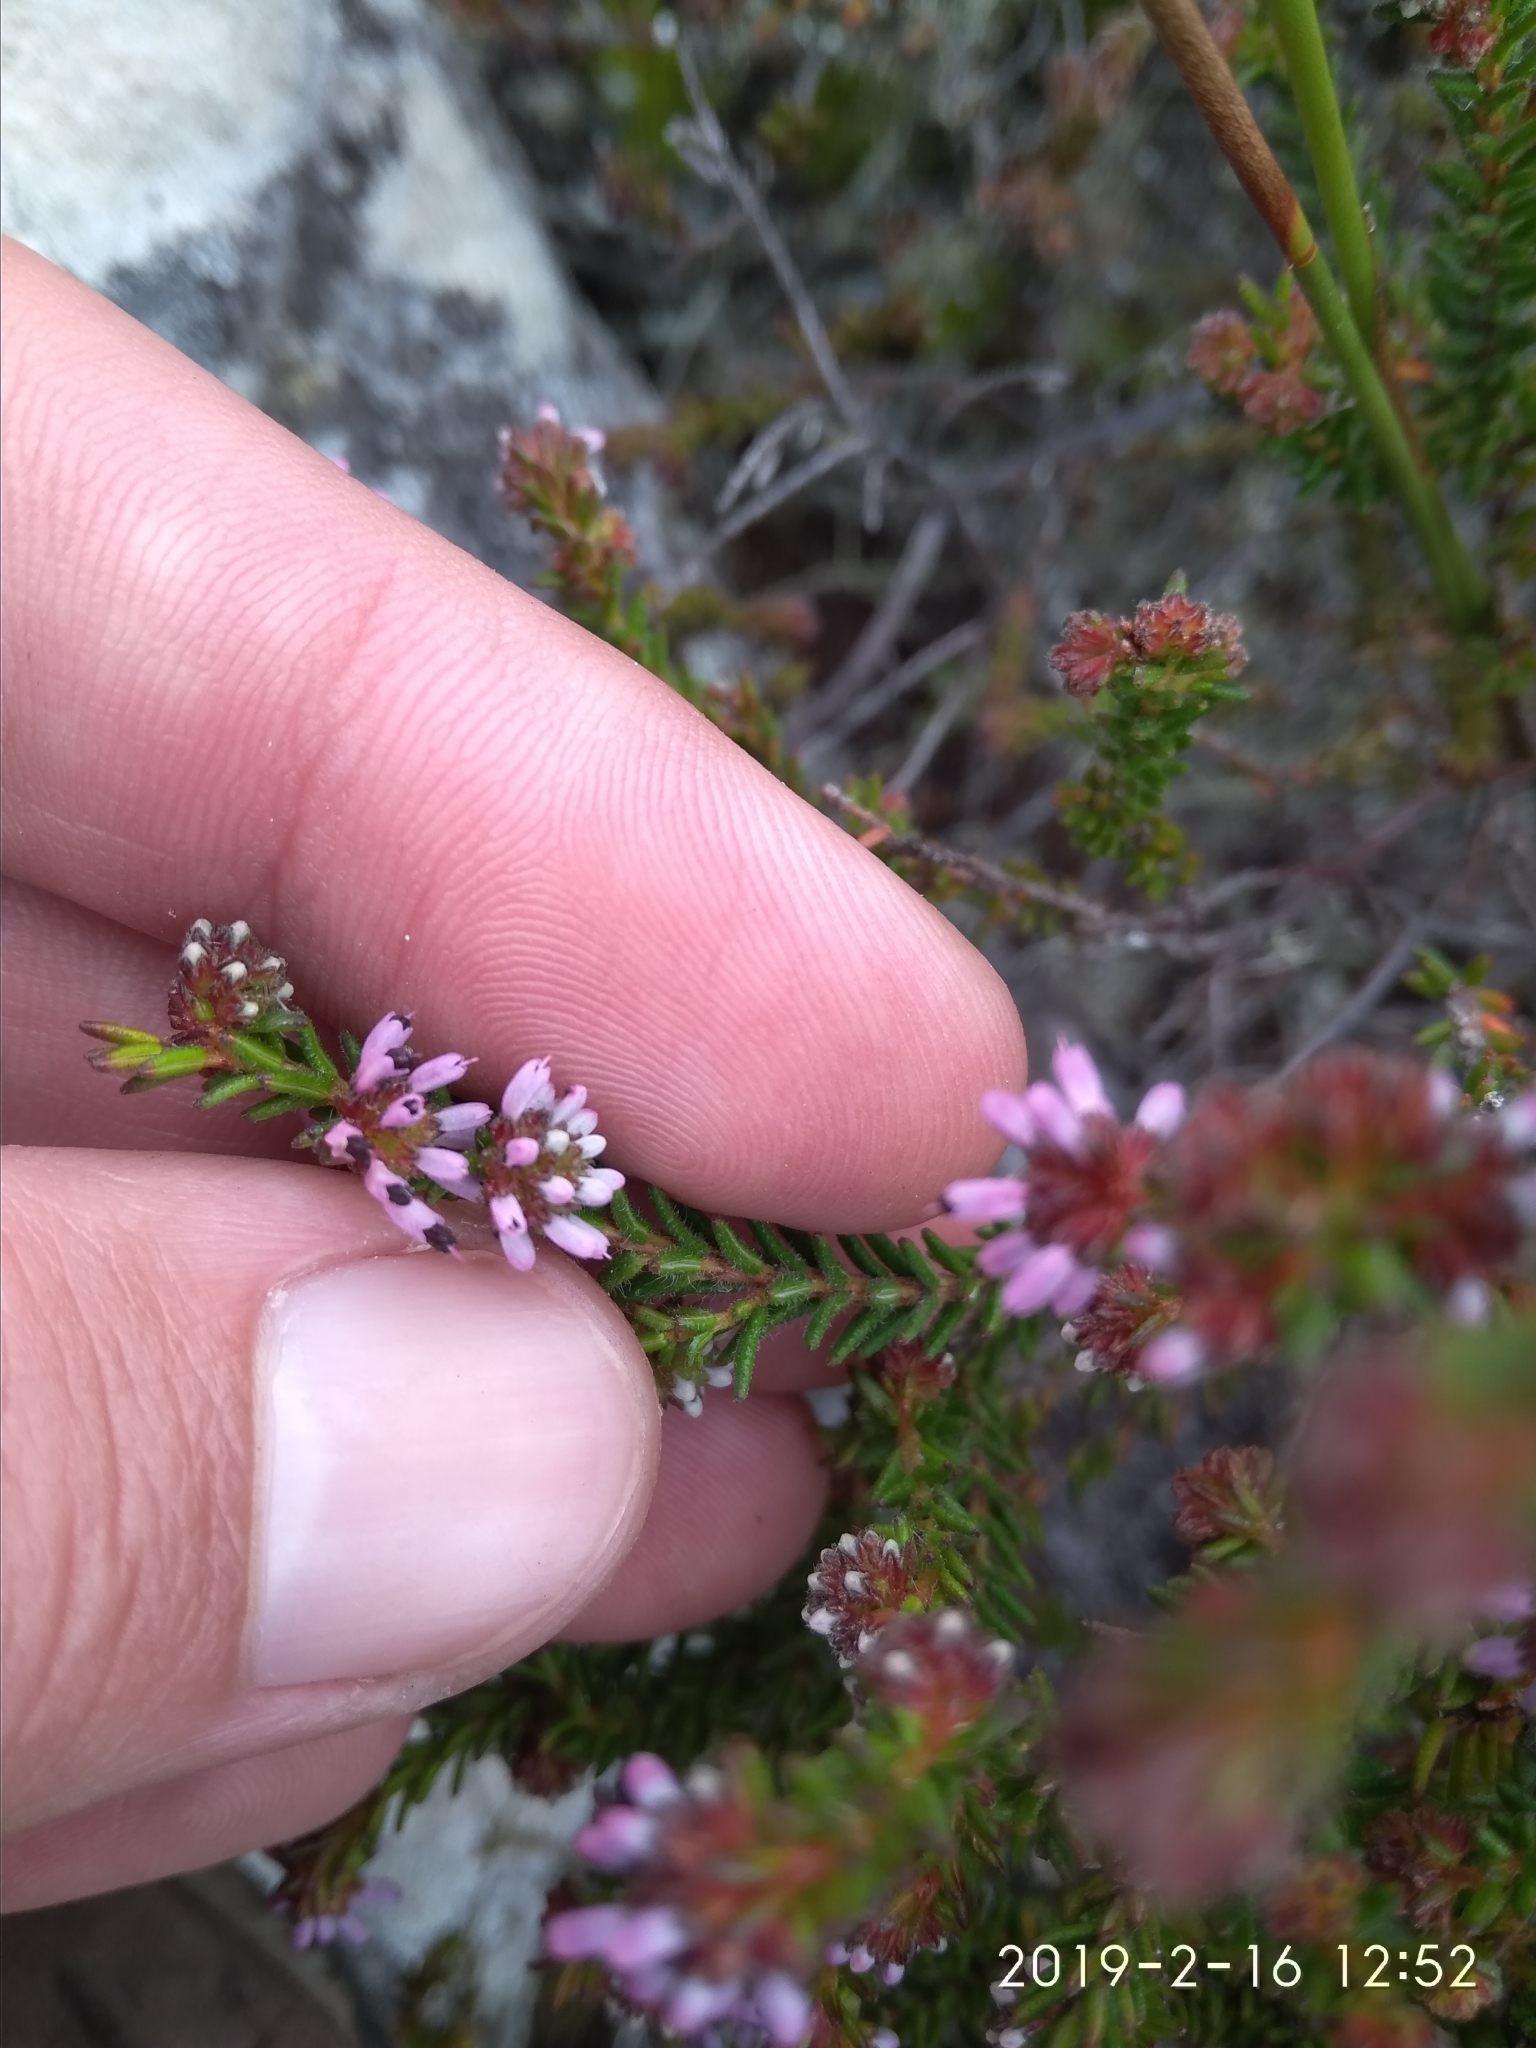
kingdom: Plantae
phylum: Tracheophyta
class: Magnoliopsida
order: Ericales
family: Ericaceae
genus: Erica
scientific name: Erica nudiflora
